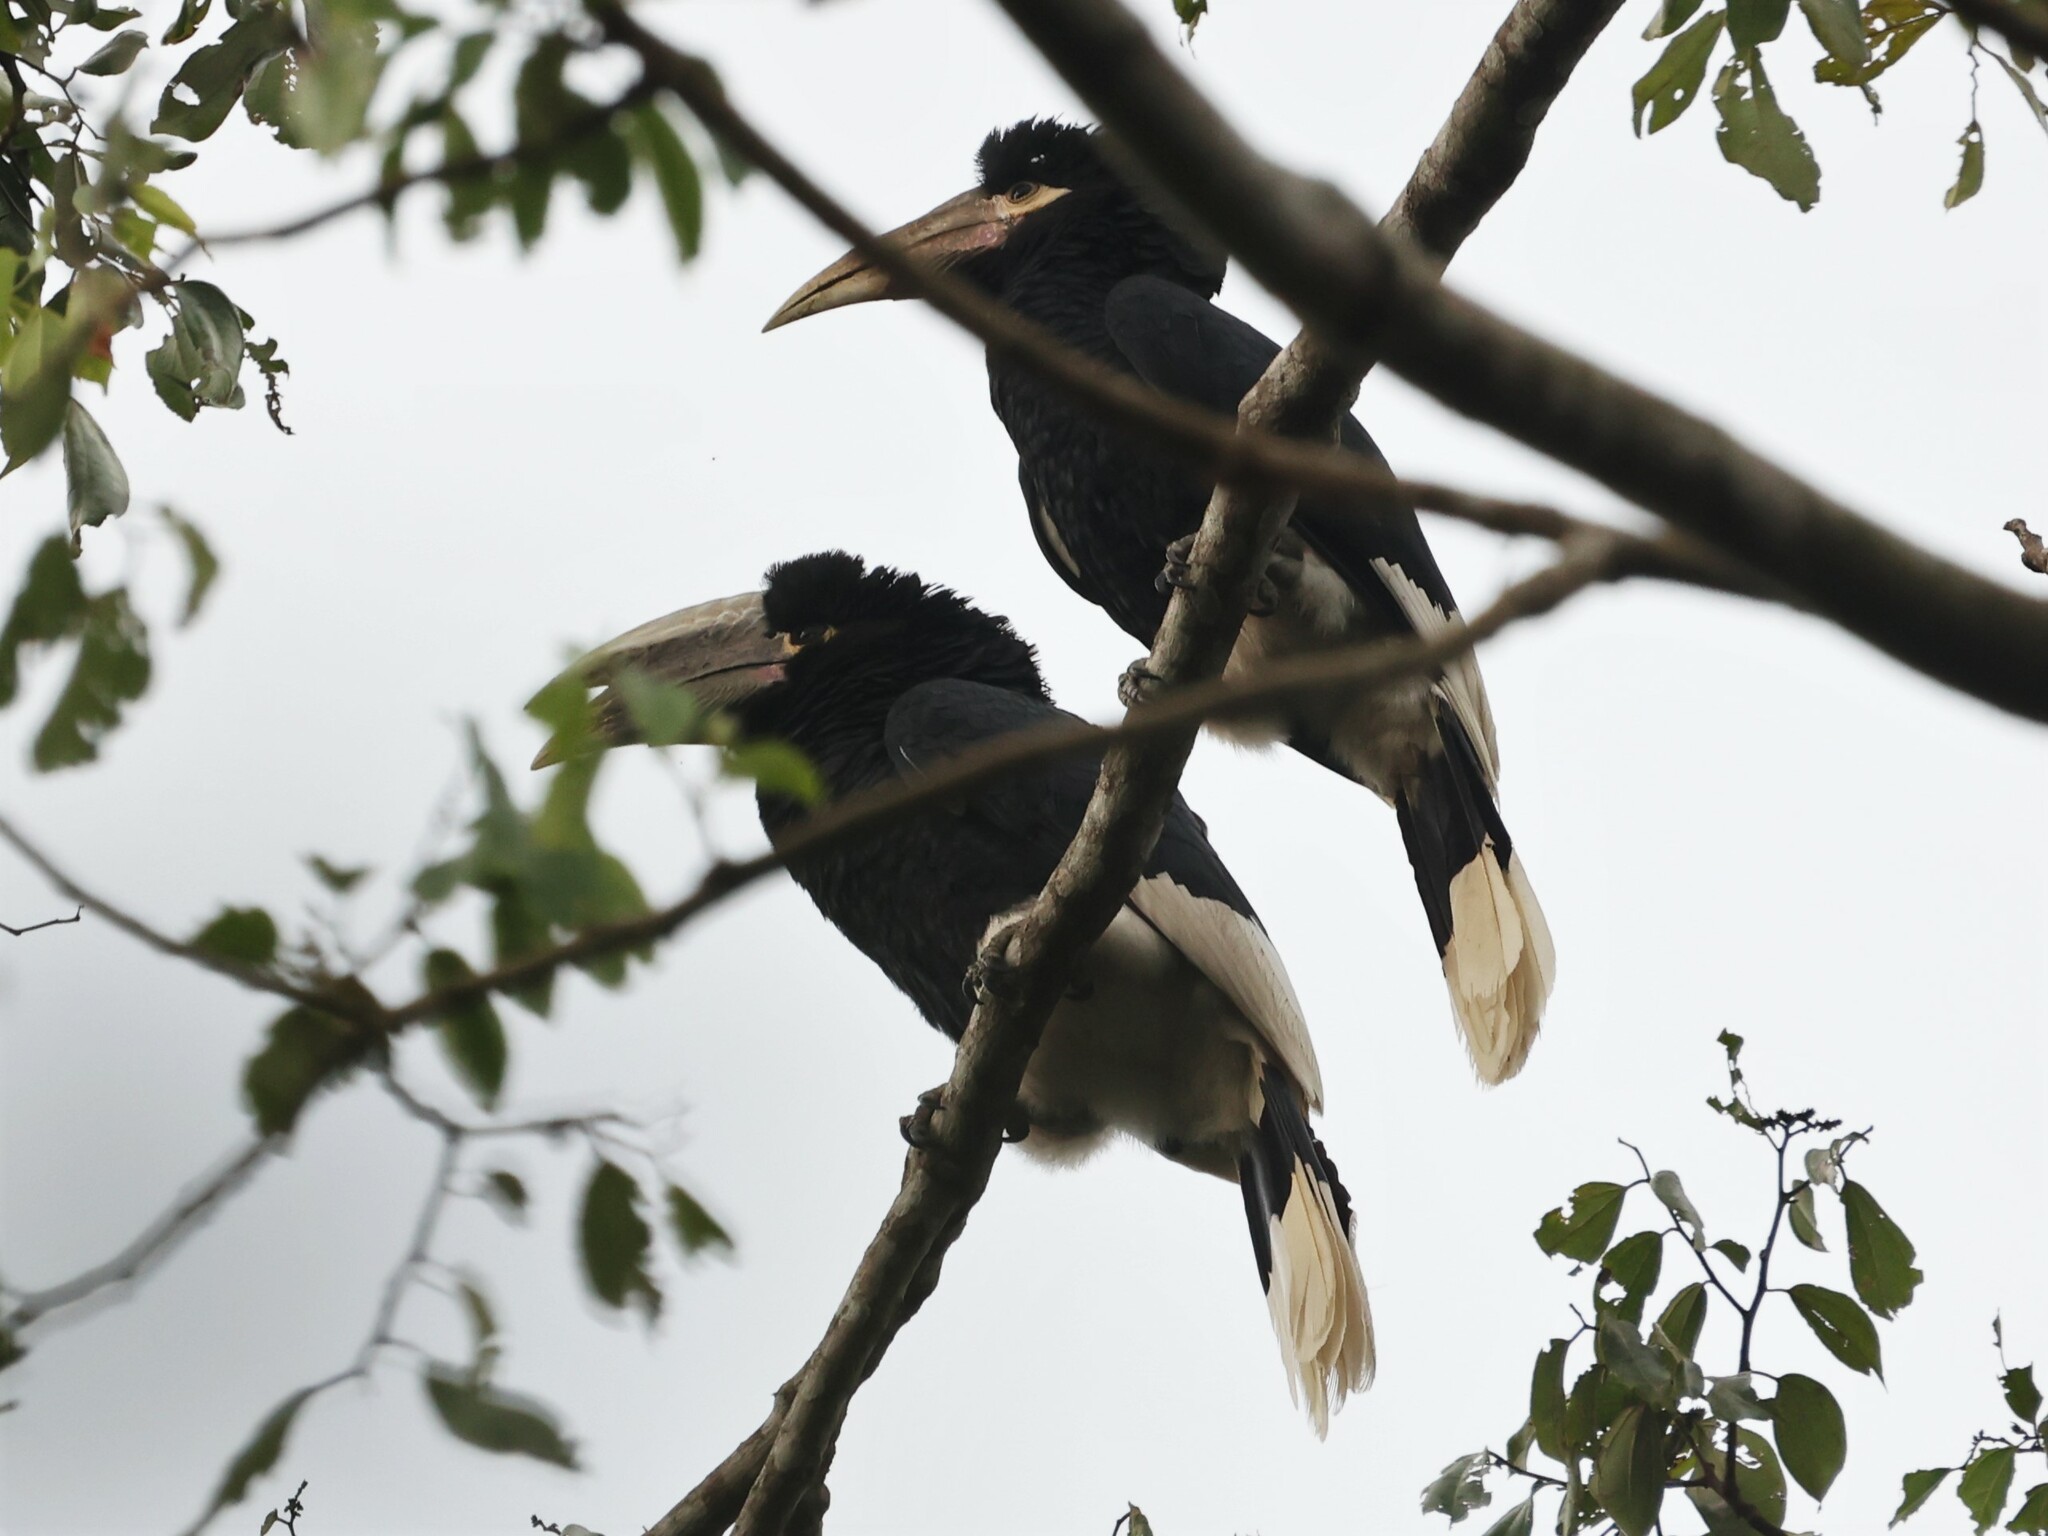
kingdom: Animalia
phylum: Chordata
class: Aves
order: Bucerotiformes
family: Bucerotidae
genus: Bycanistes
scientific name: Bycanistes albotibialis
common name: White-thighed hornbill
